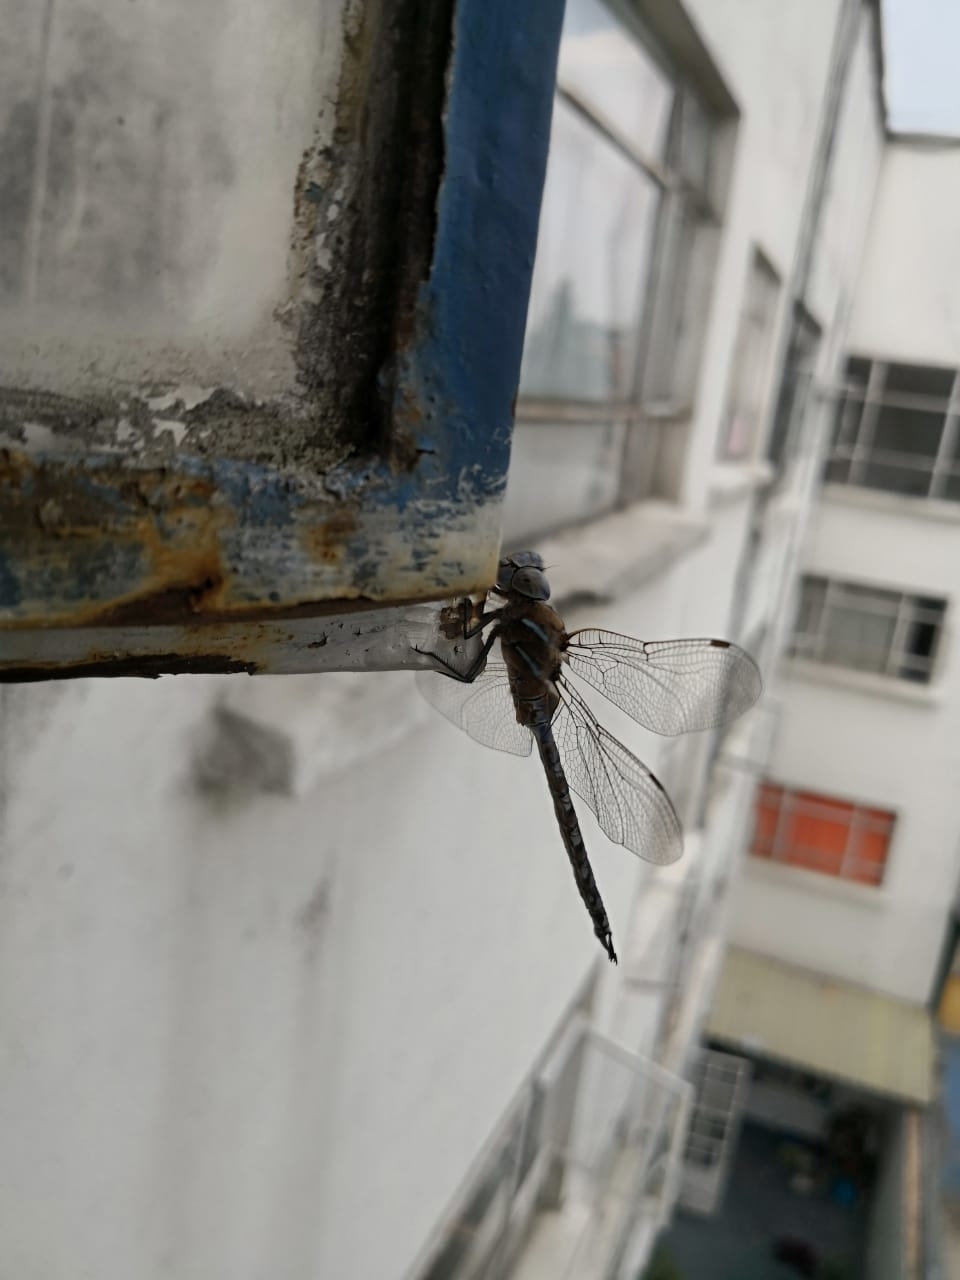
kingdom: Animalia
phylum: Arthropoda
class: Insecta
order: Odonata
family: Aeshnidae
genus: Rhionaeschna
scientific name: Rhionaeschna multicolor
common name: Blue-eyed darner
